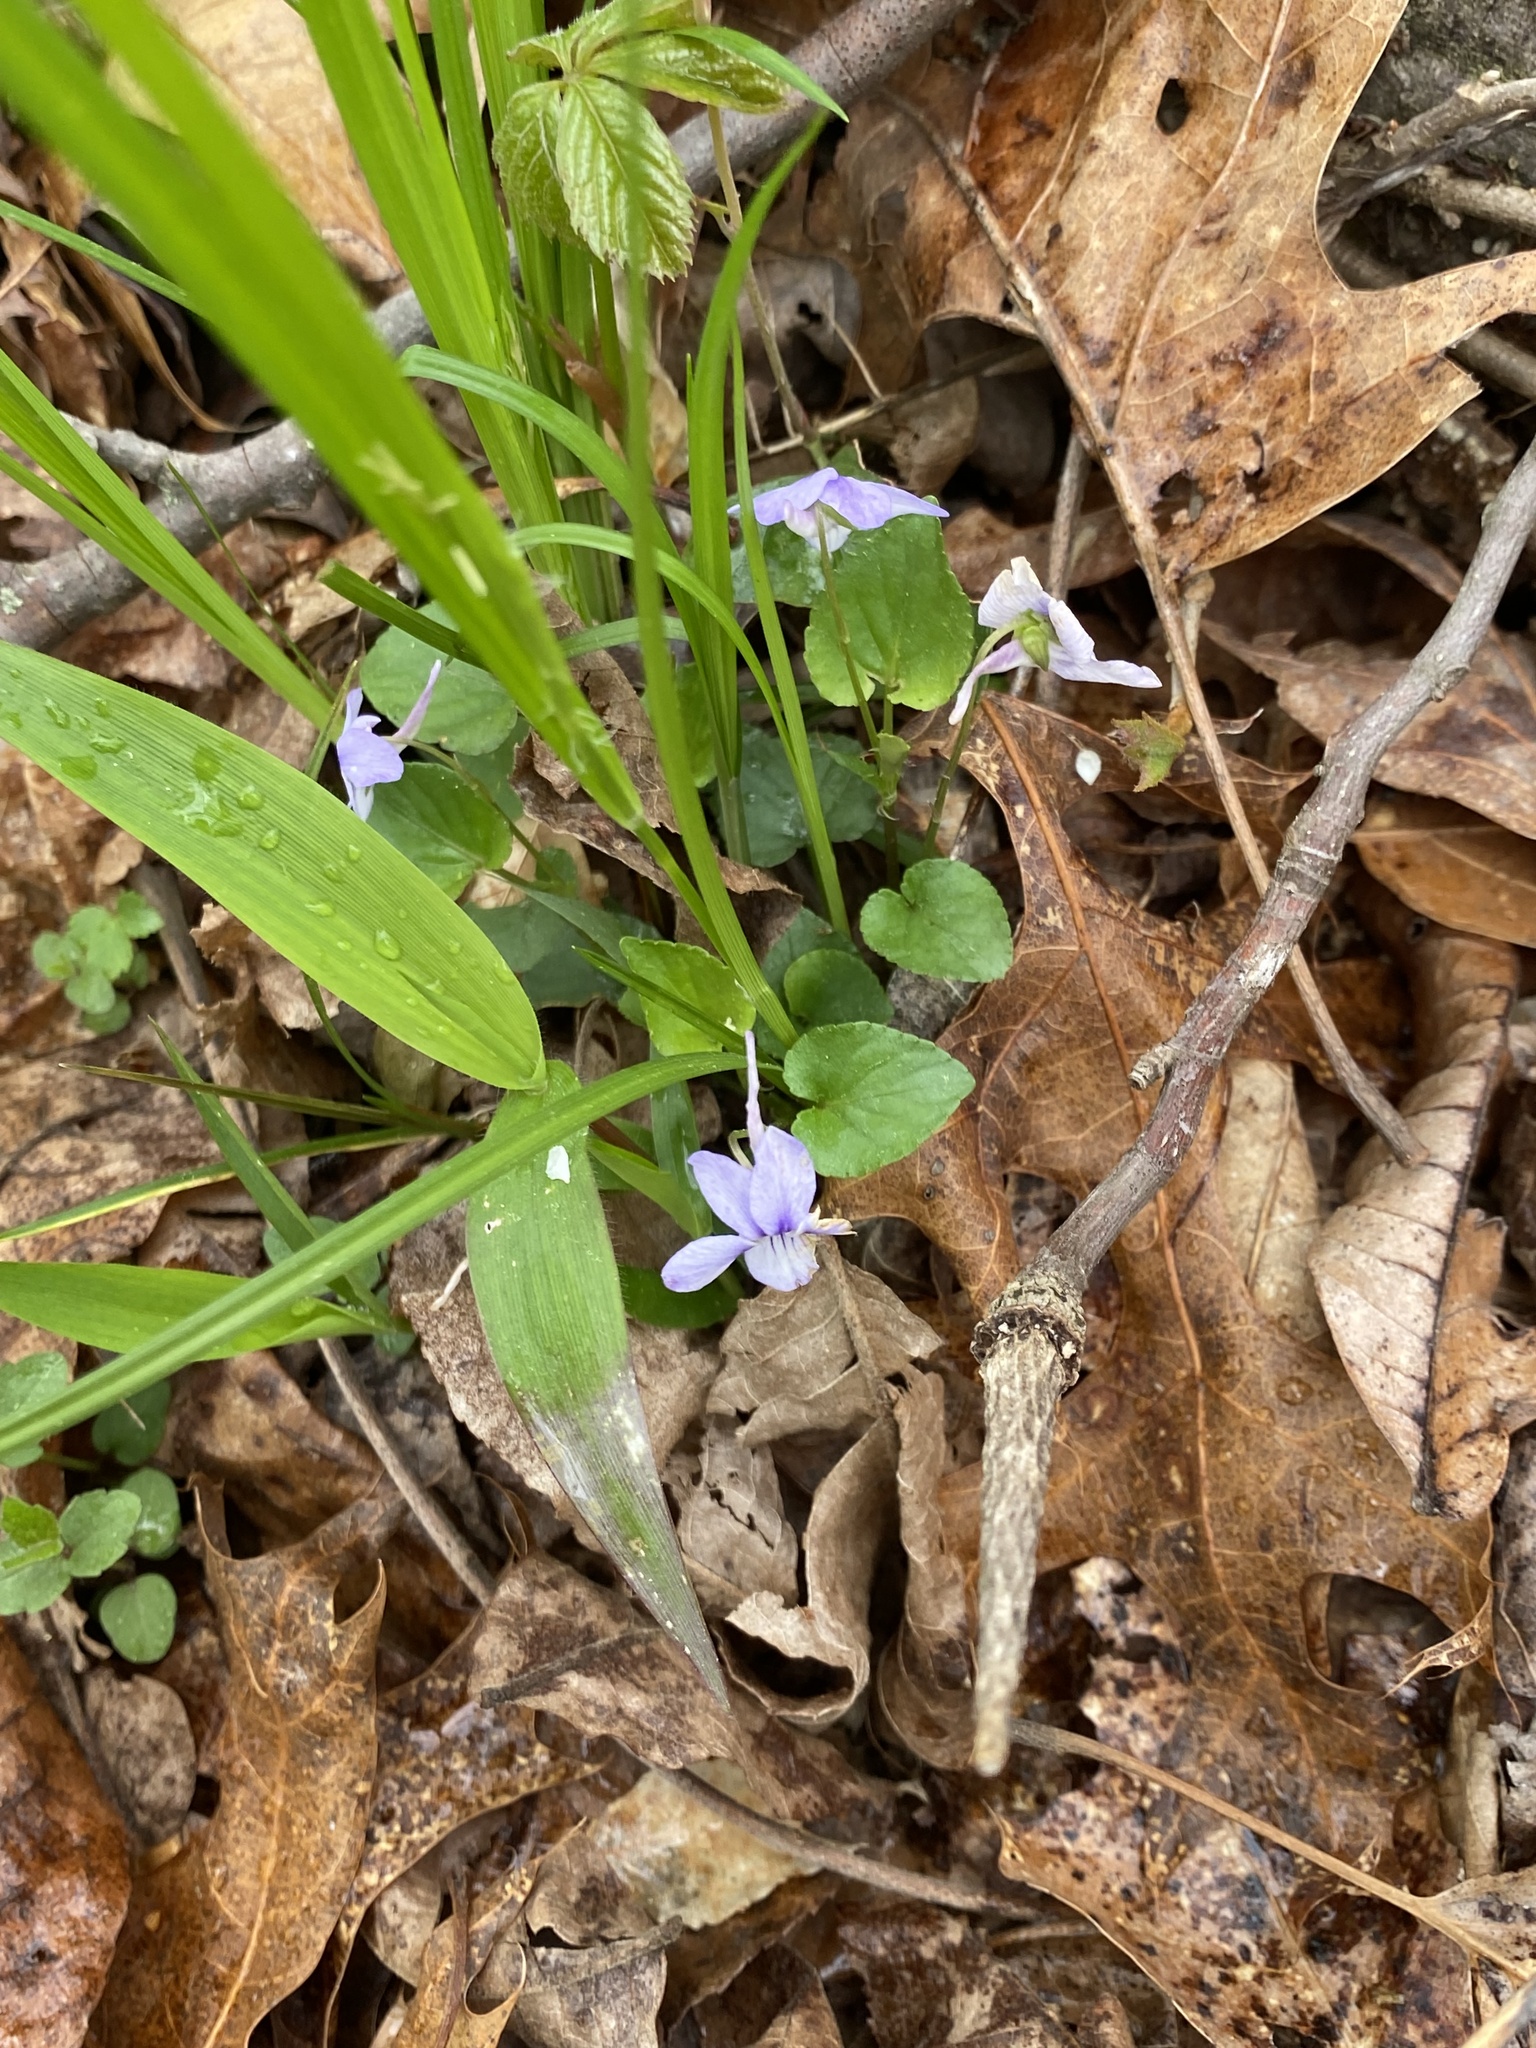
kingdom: Plantae
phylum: Tracheophyta
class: Magnoliopsida
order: Malpighiales
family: Violaceae
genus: Viola
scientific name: Viola rostrata
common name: Long-spur violet
